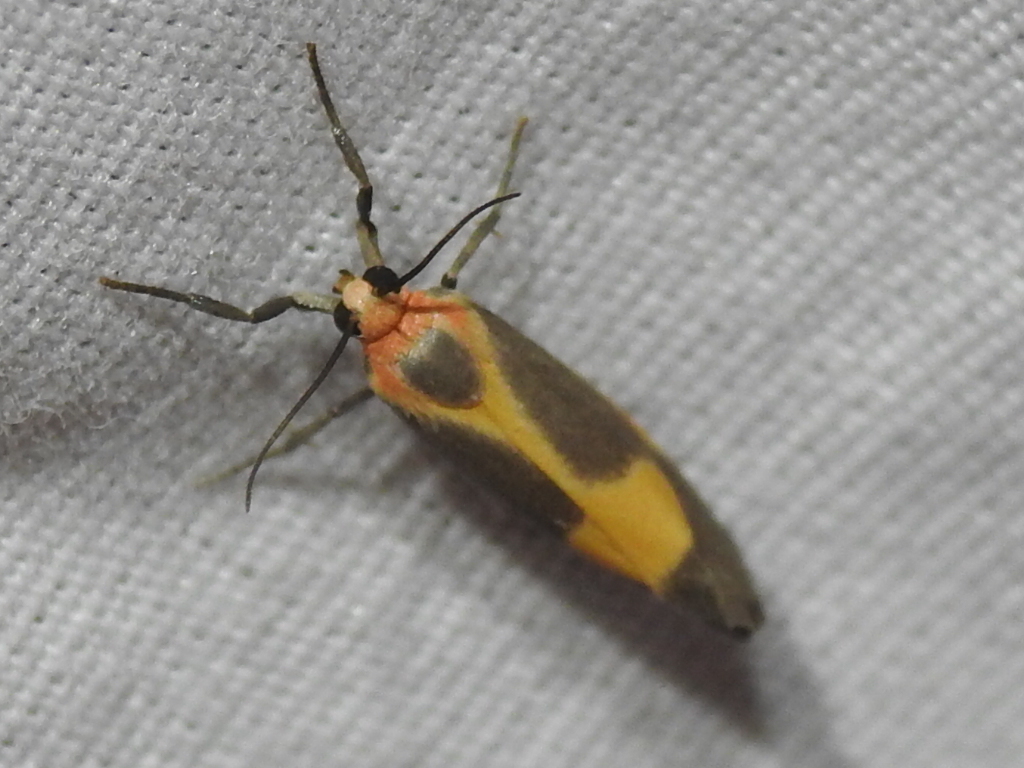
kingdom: Animalia
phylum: Arthropoda
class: Insecta
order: Lepidoptera
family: Erebidae
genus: Cisthene
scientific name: Cisthene plumbea
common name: Lead colored lichen moth
